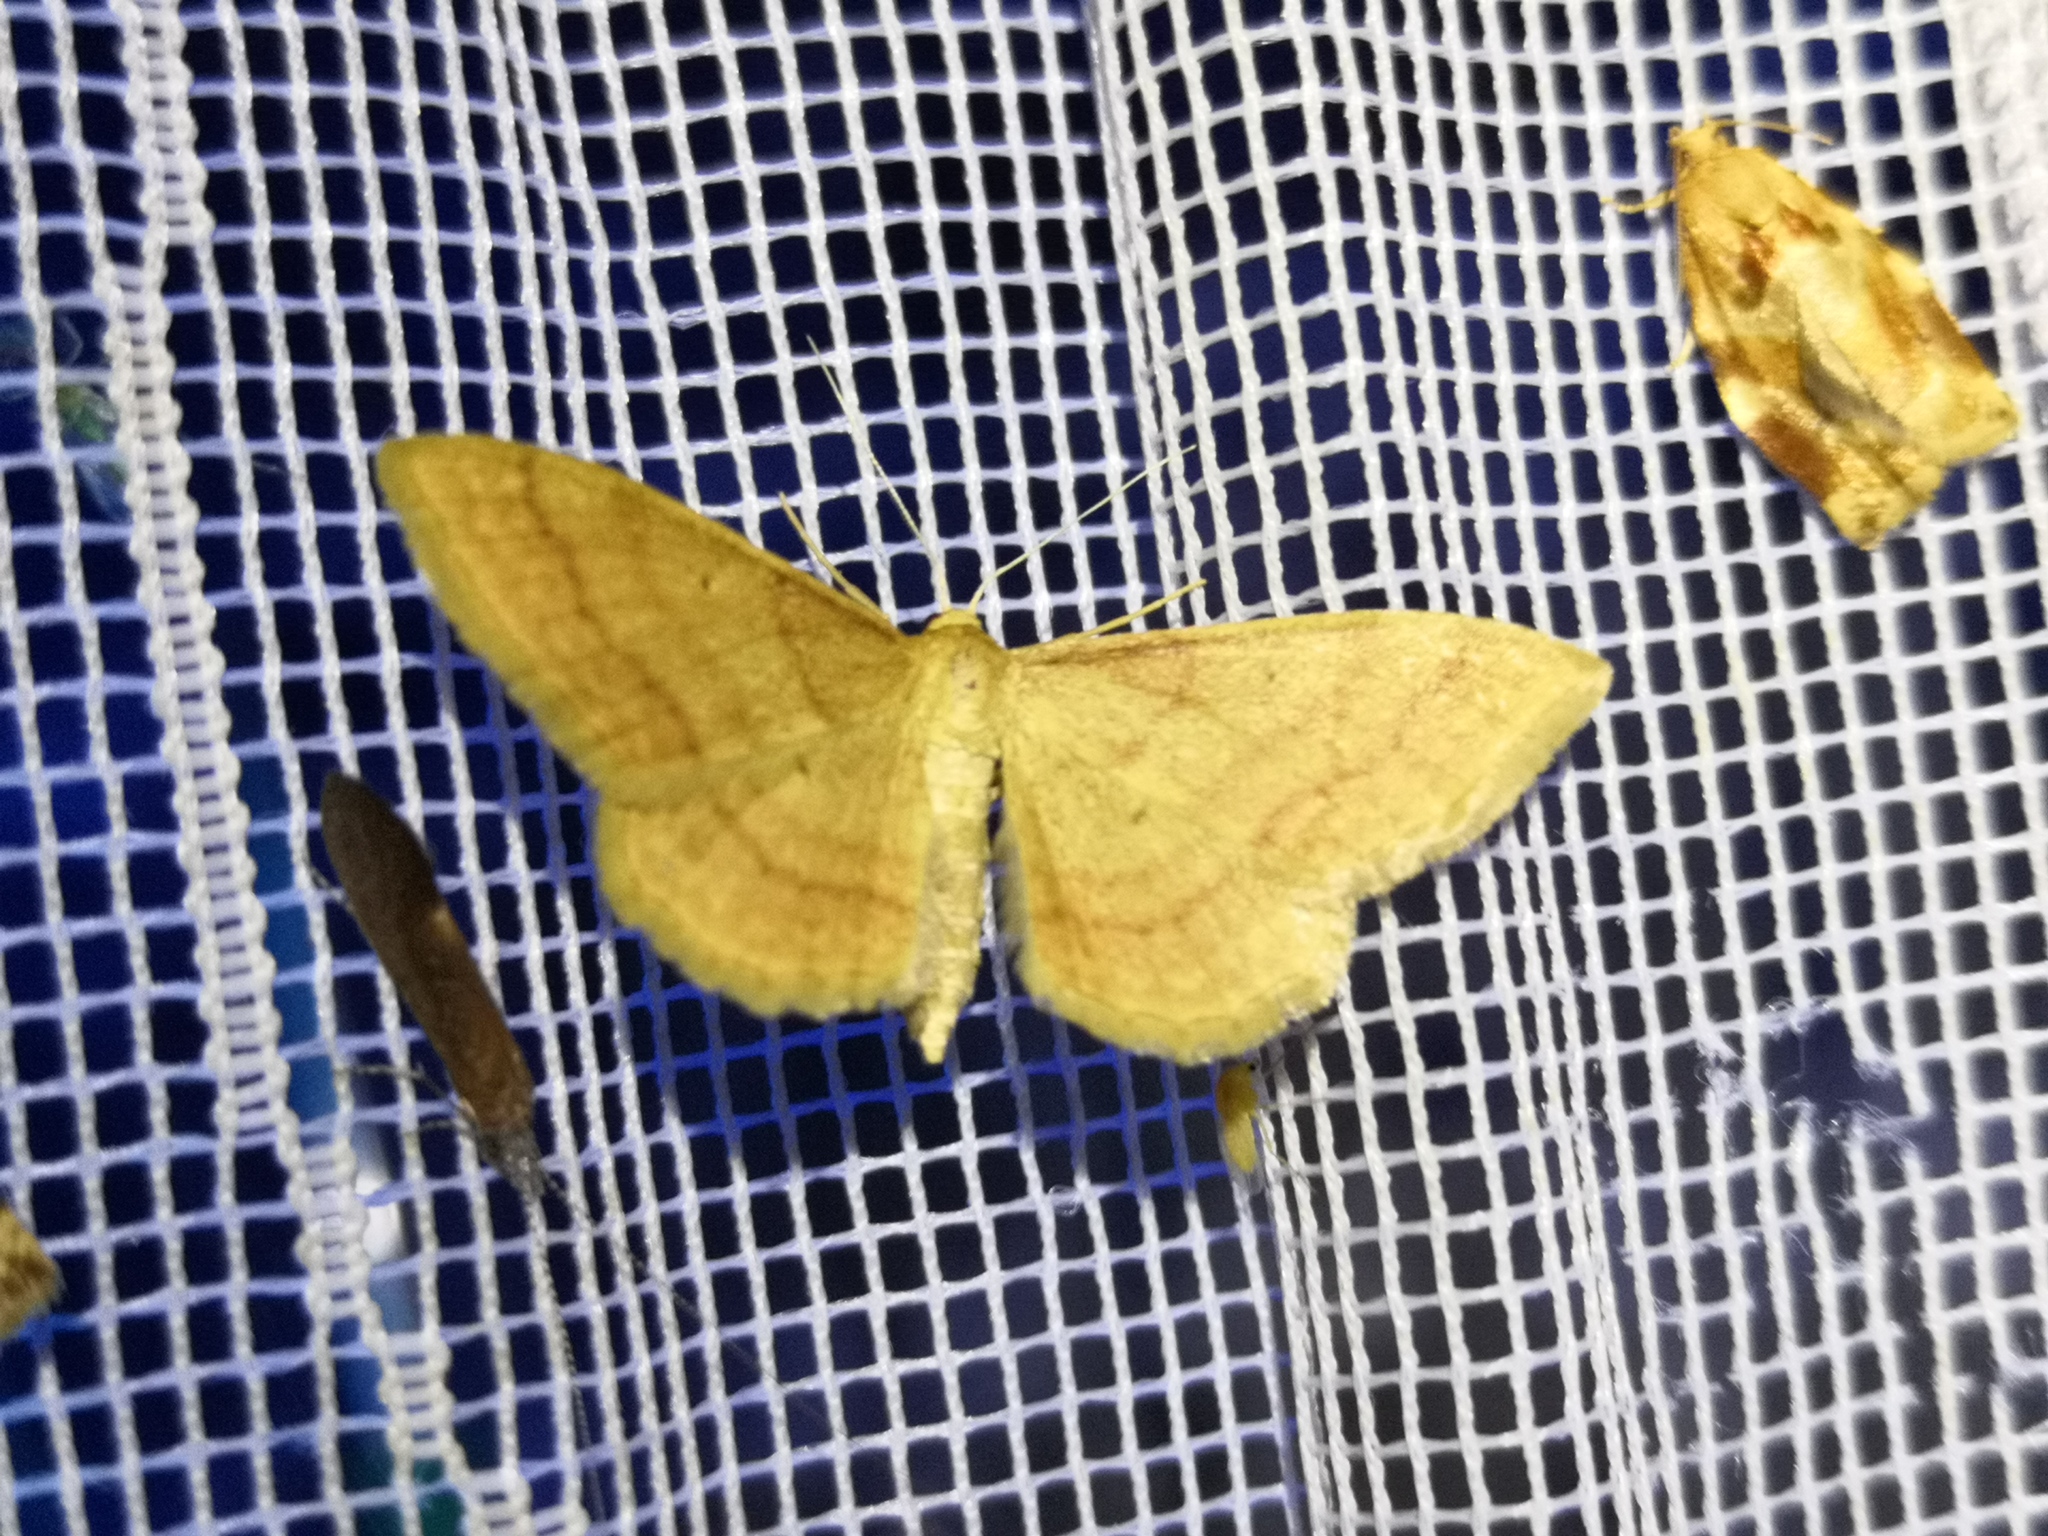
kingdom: Animalia
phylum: Arthropoda
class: Insecta
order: Lepidoptera
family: Geometridae
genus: Idaea
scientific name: Idaea rufaria
